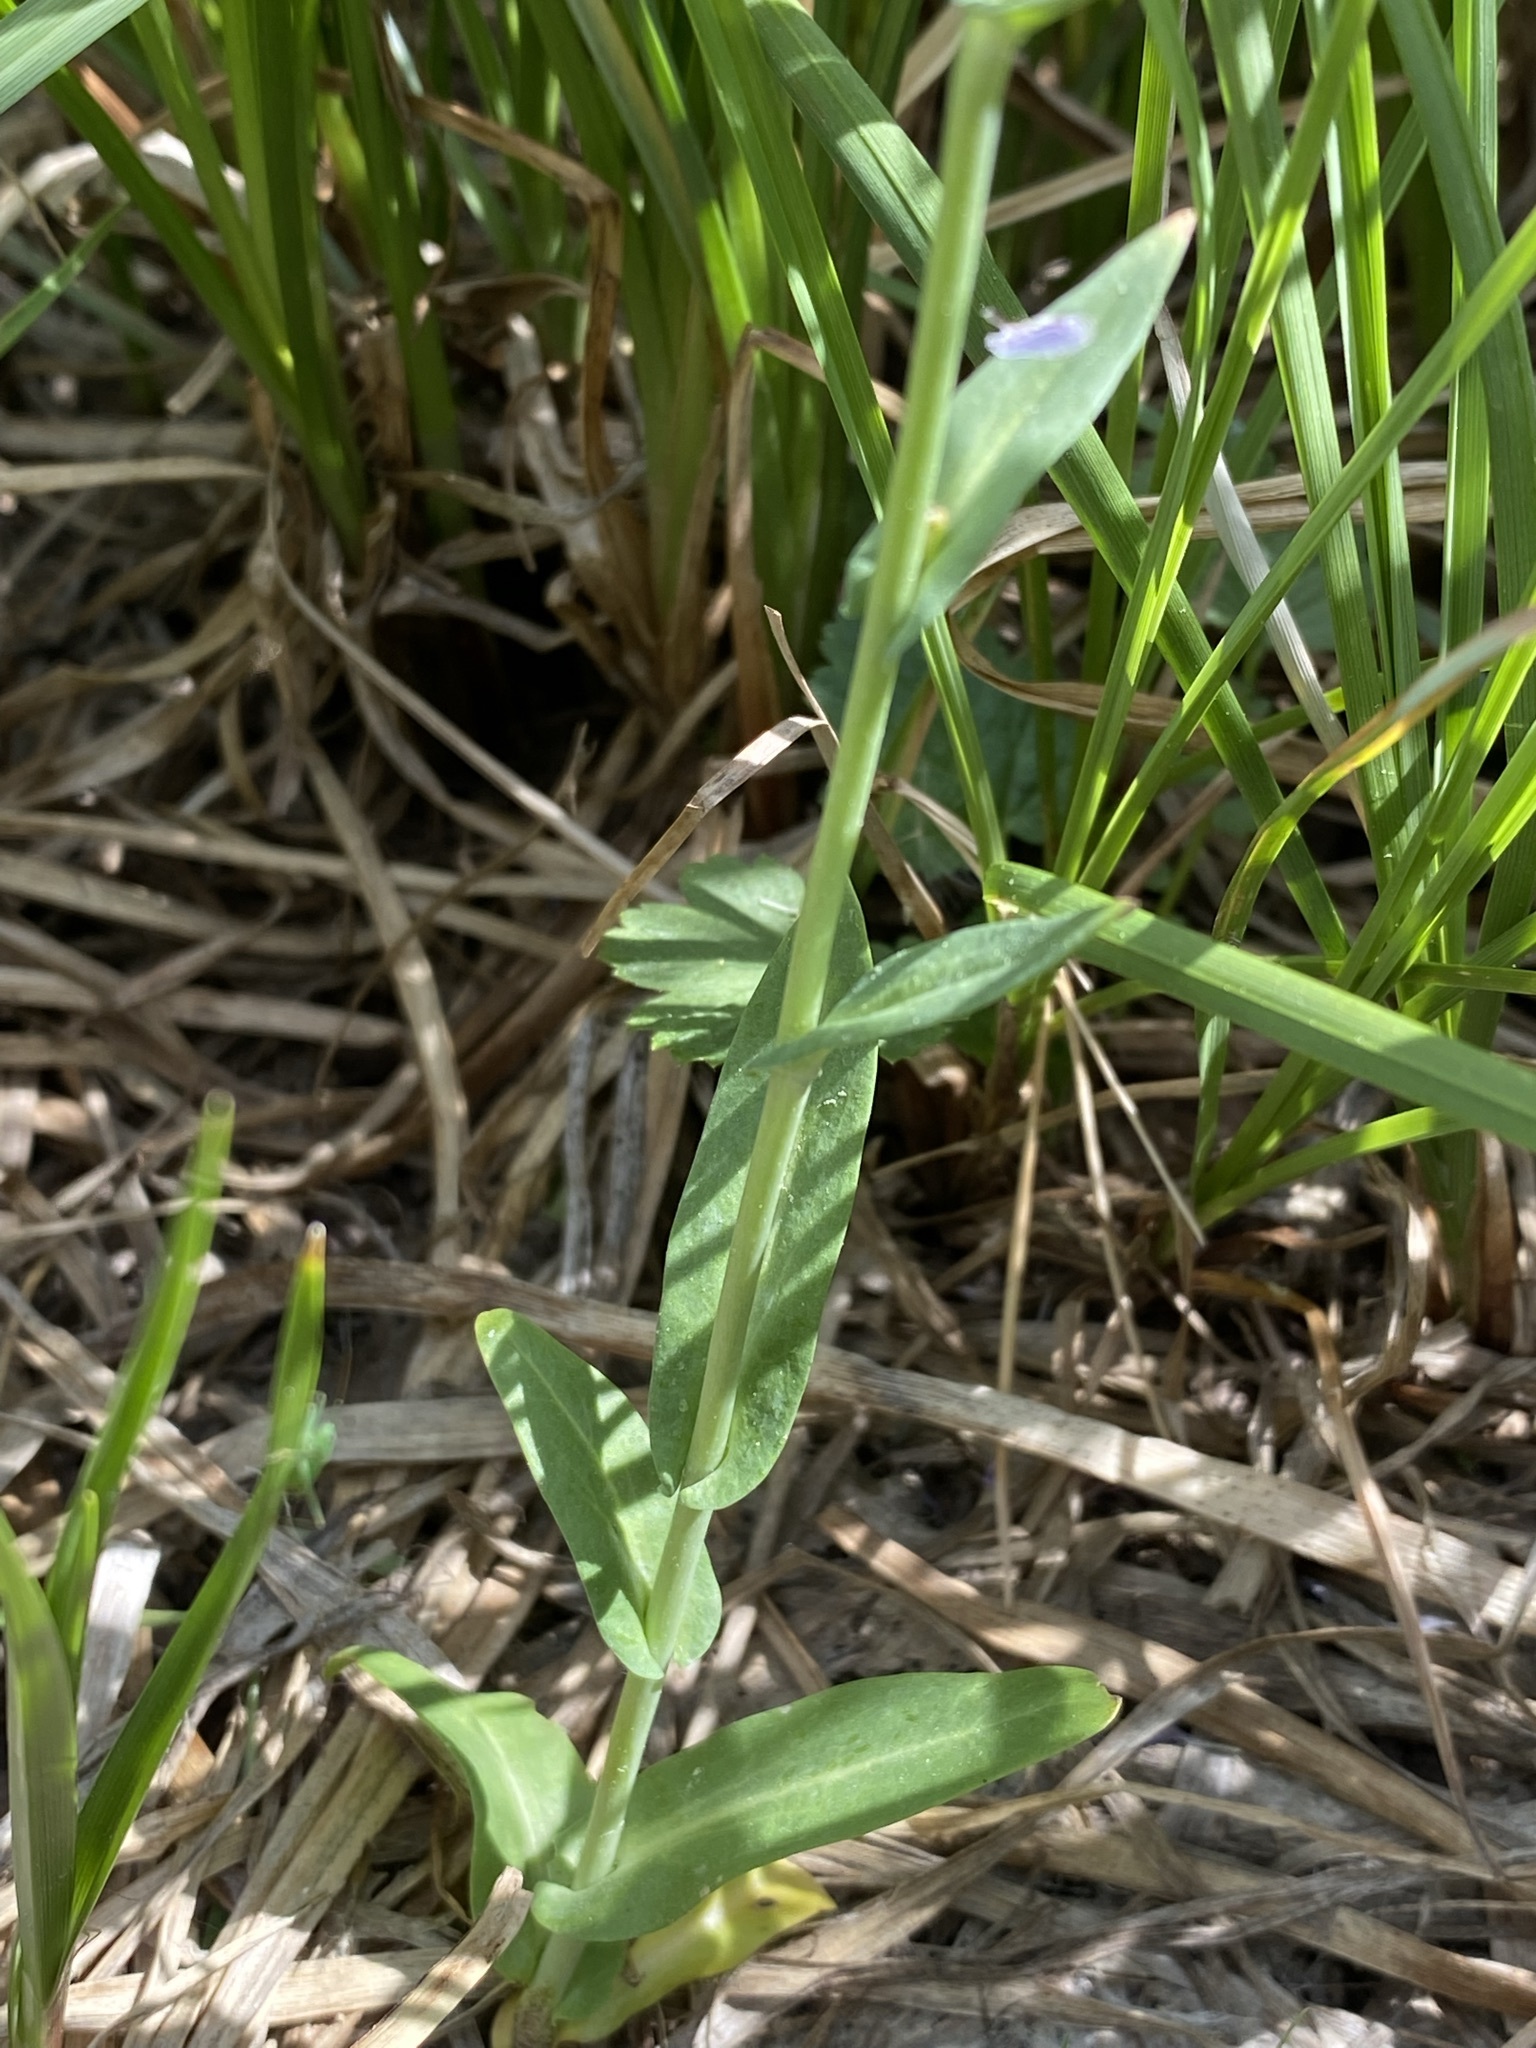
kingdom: Plantae
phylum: Tracheophyta
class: Magnoliopsida
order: Brassicales
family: Brassicaceae
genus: Thelypodium
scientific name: Thelypodium paniculatum
